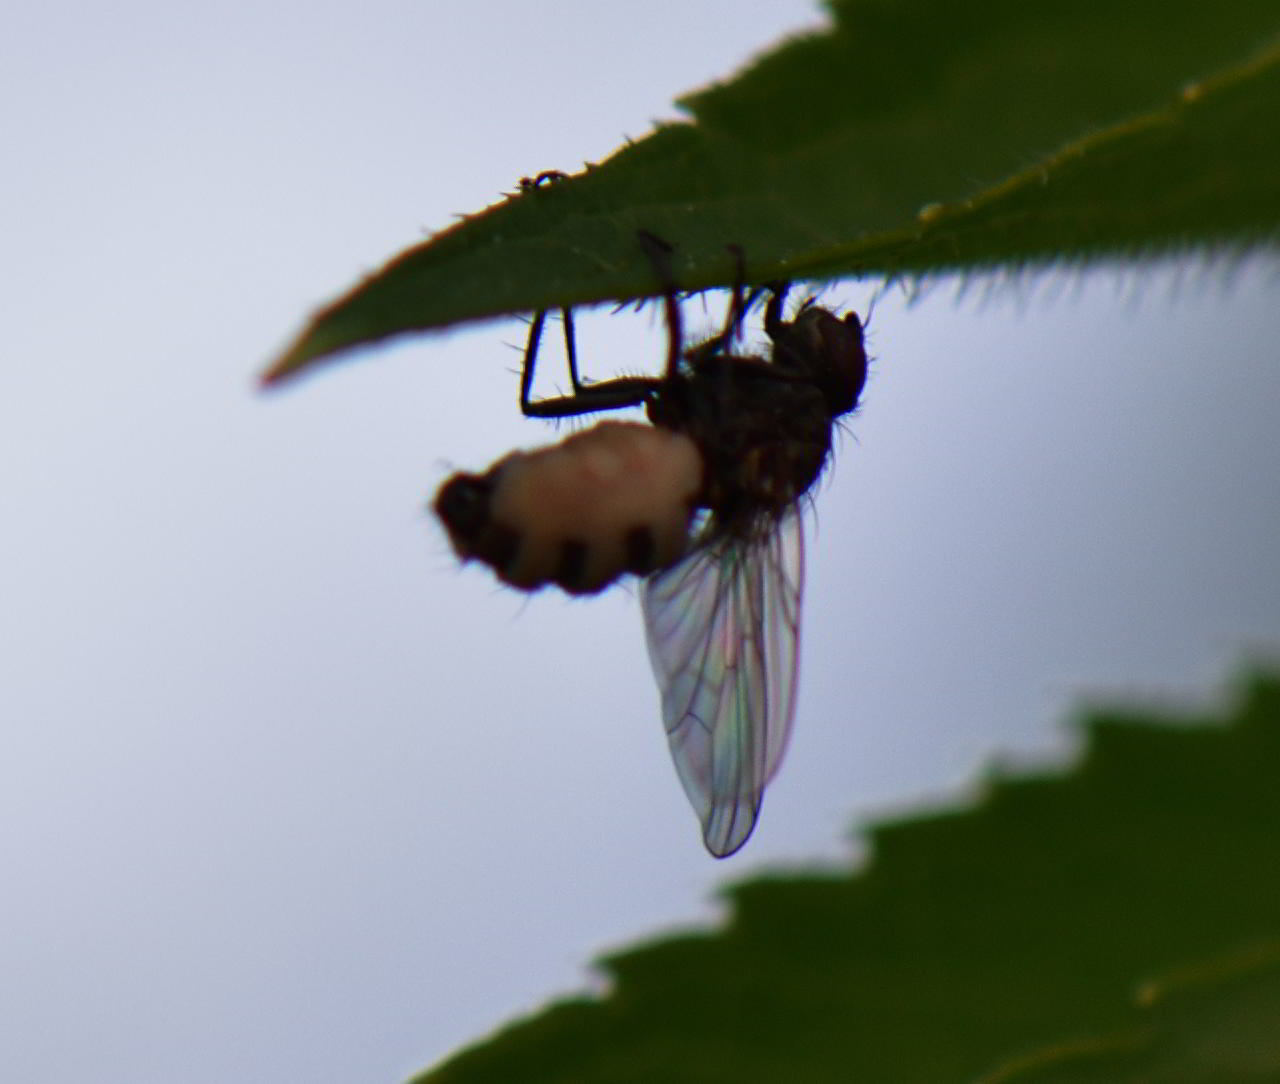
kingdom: Fungi
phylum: Entomophthoromycota
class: Entomophthoromycetes
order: Entomophthorales
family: Entomophthoraceae
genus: Entomophthora
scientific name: Entomophthora
